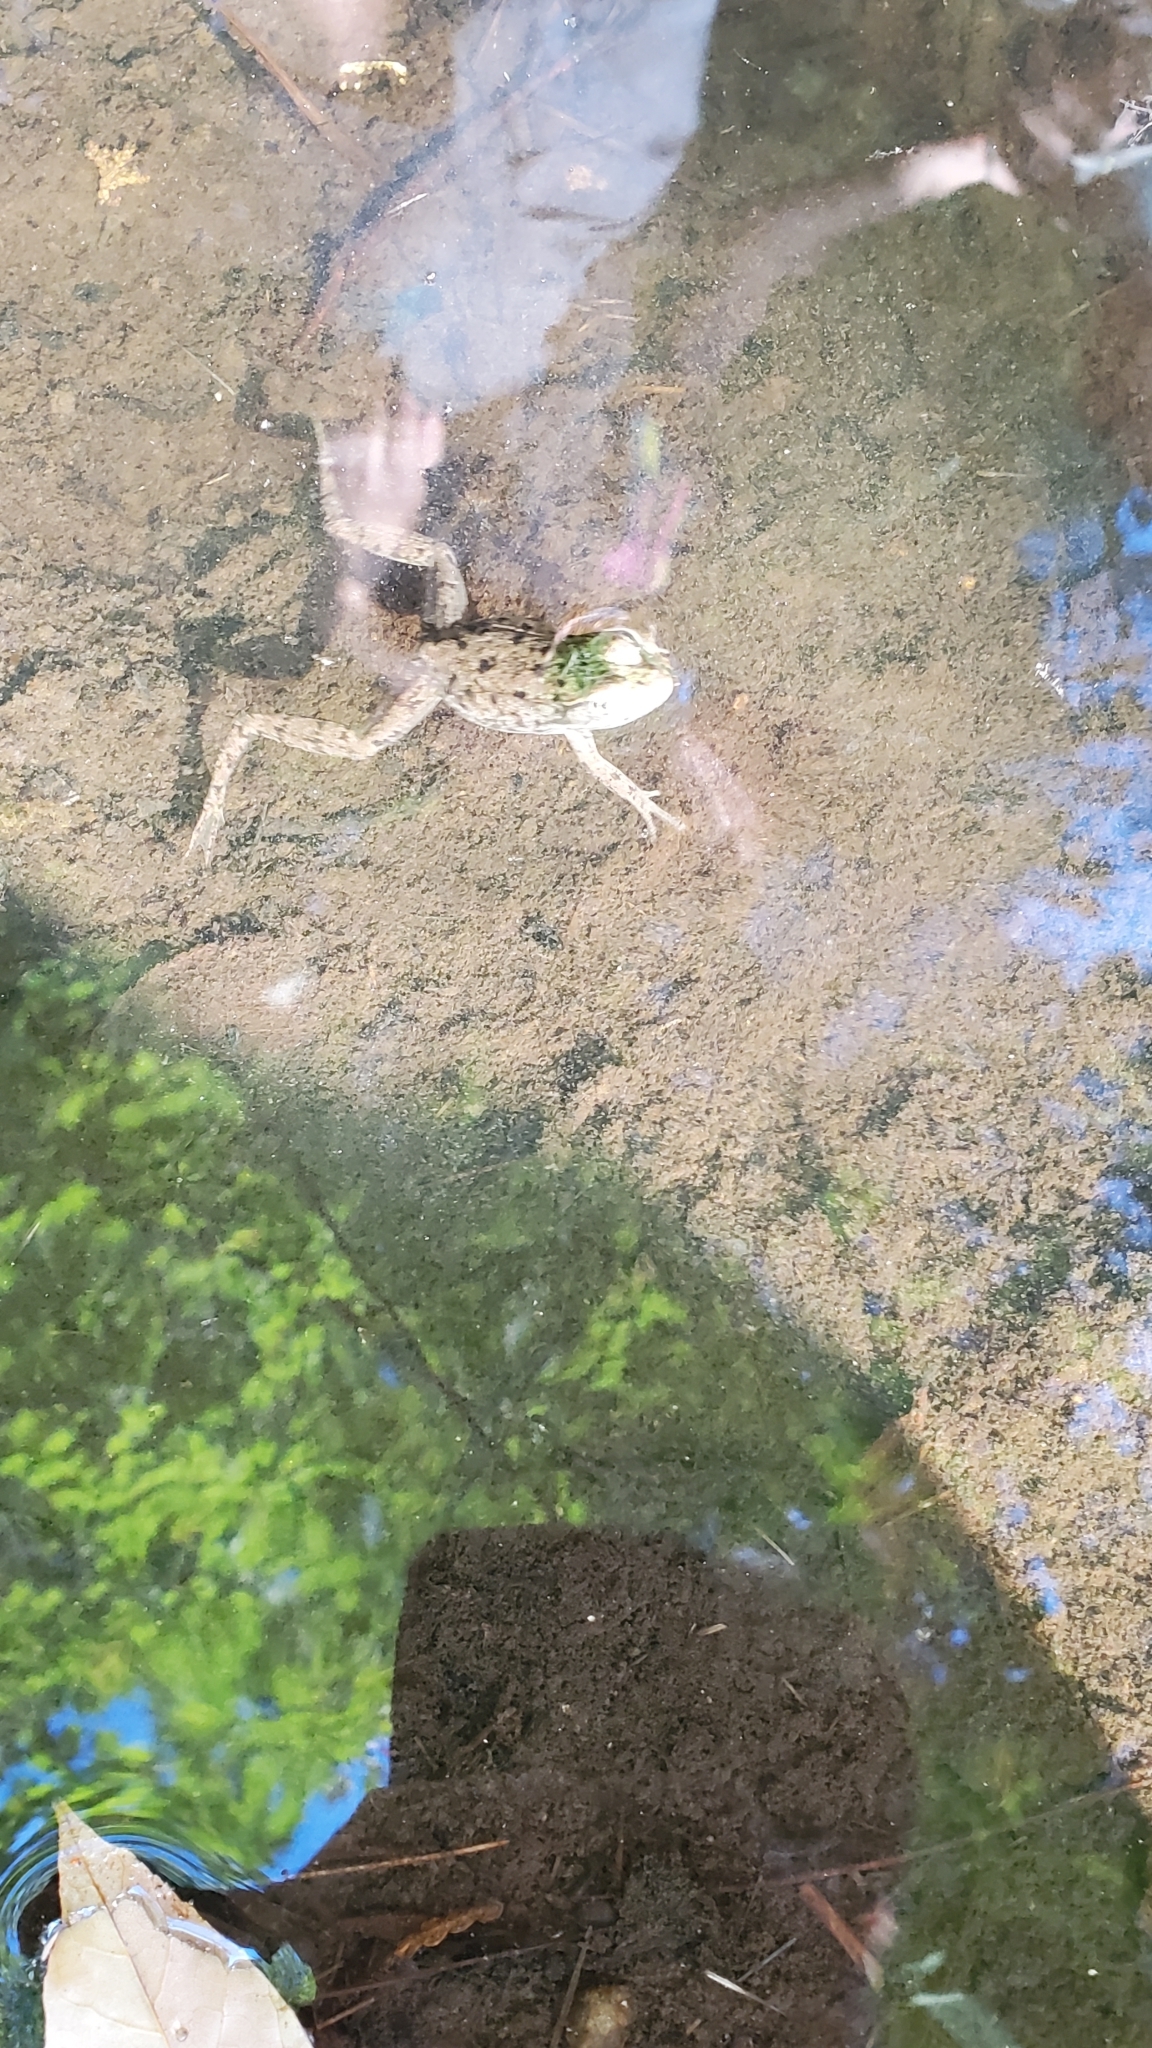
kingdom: Animalia
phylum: Chordata
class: Amphibia
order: Anura
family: Ranidae
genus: Lithobates
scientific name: Lithobates clamitans
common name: Green frog
